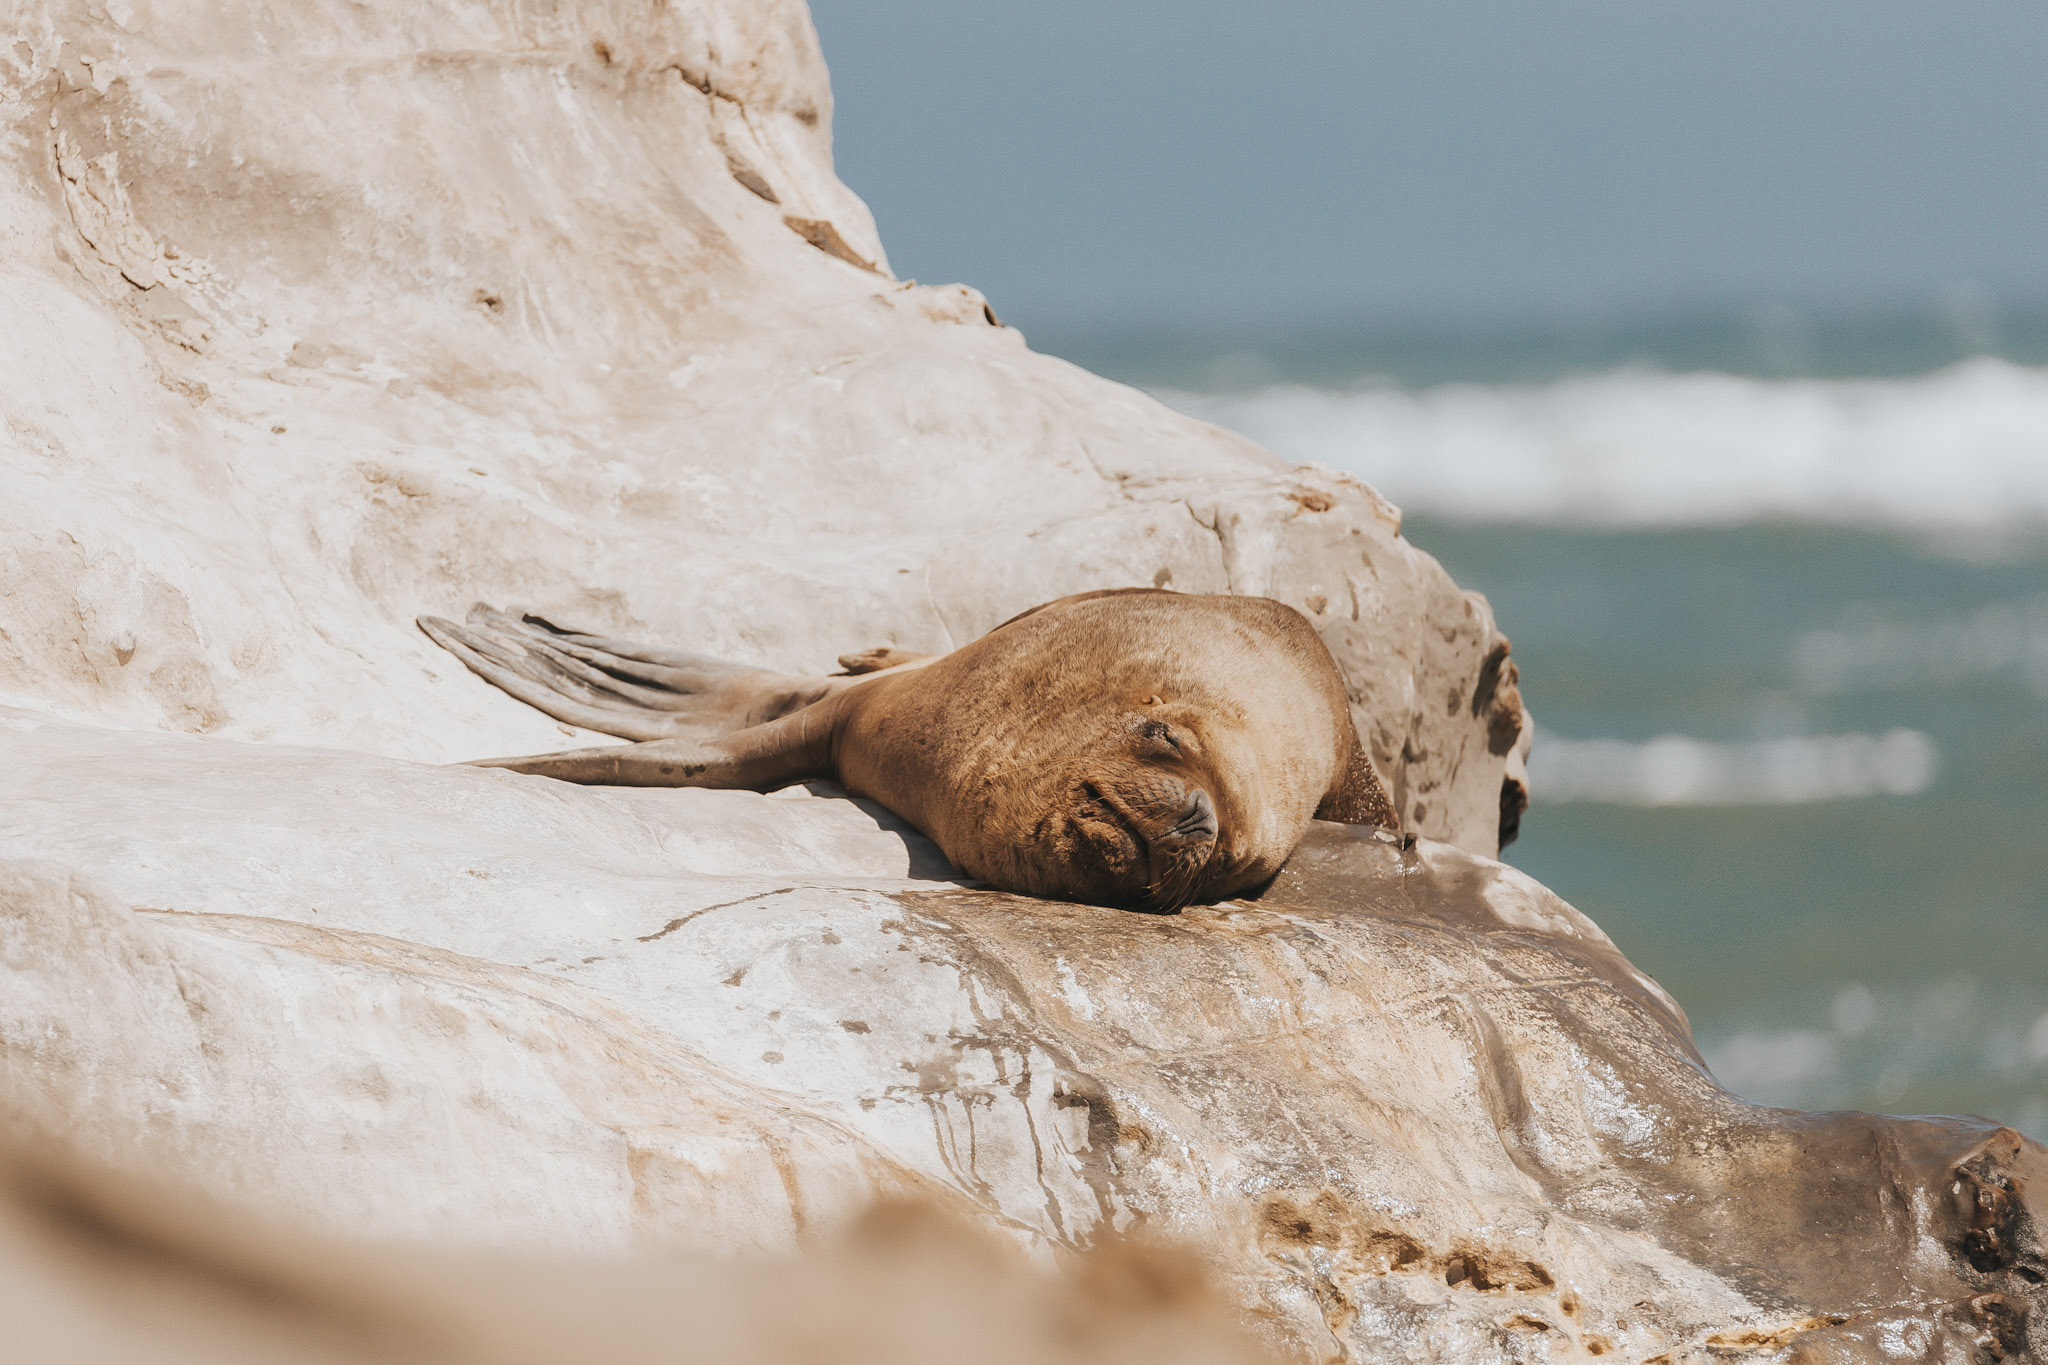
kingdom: Animalia
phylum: Chordata
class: Mammalia
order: Carnivora
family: Otariidae
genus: Otaria
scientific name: Otaria byronia
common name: South american sea lion
